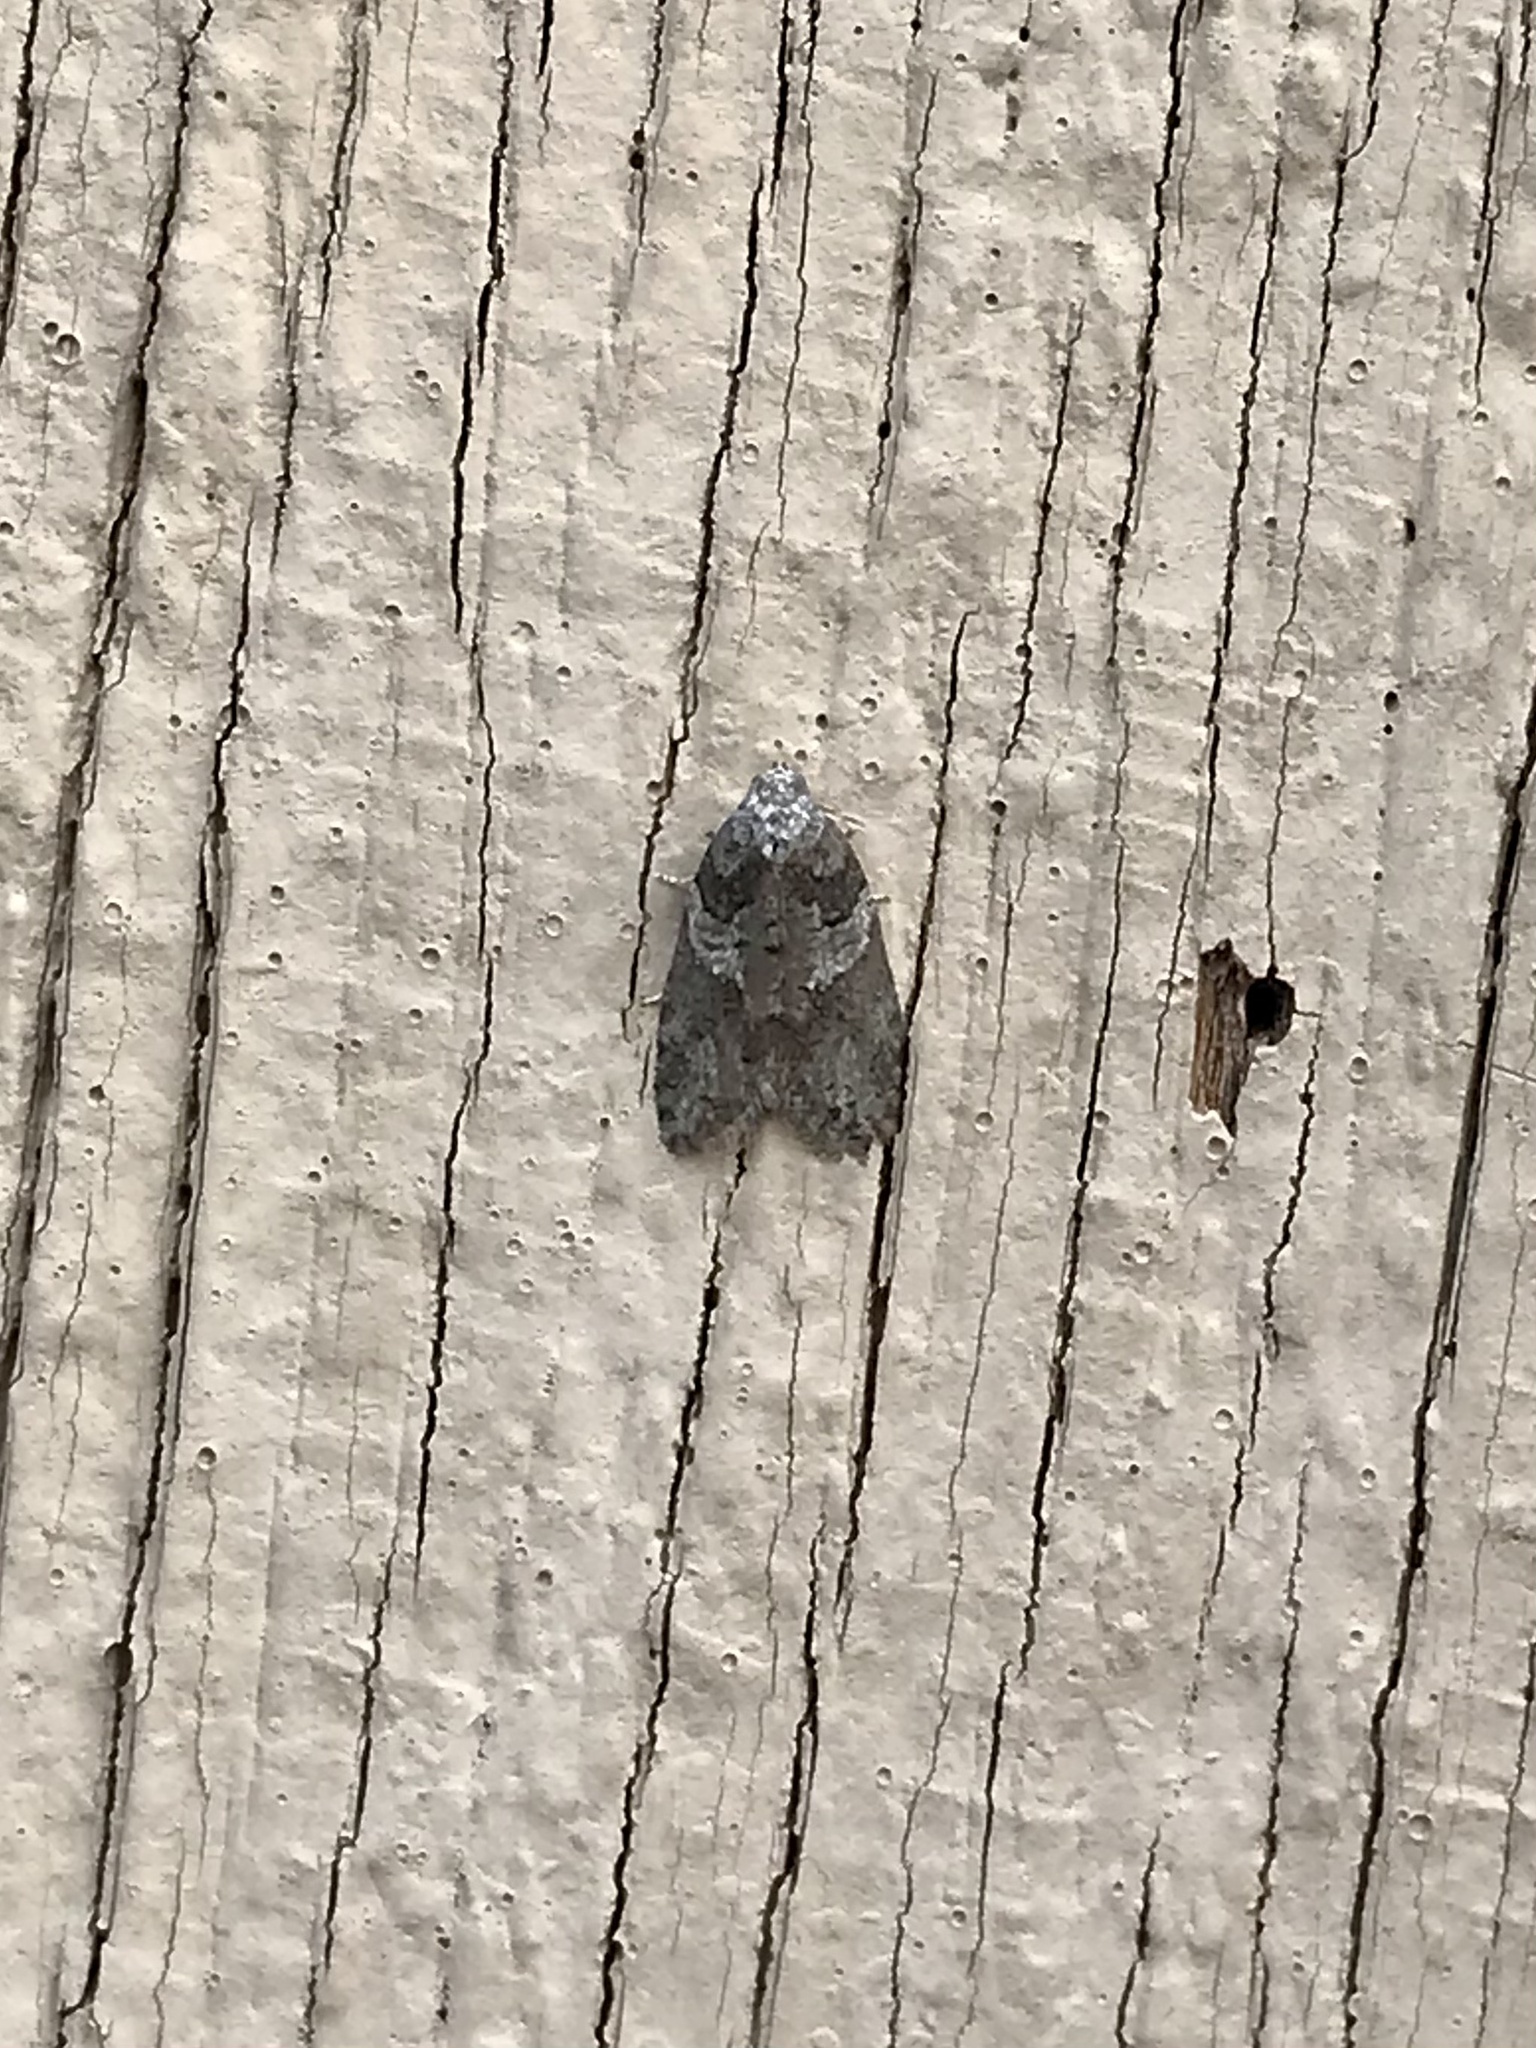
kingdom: Animalia
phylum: Arthropoda
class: Insecta
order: Lepidoptera
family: Tortricidae
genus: Decodes
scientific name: Decodes basiplagana
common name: Gray-marked tortricid
